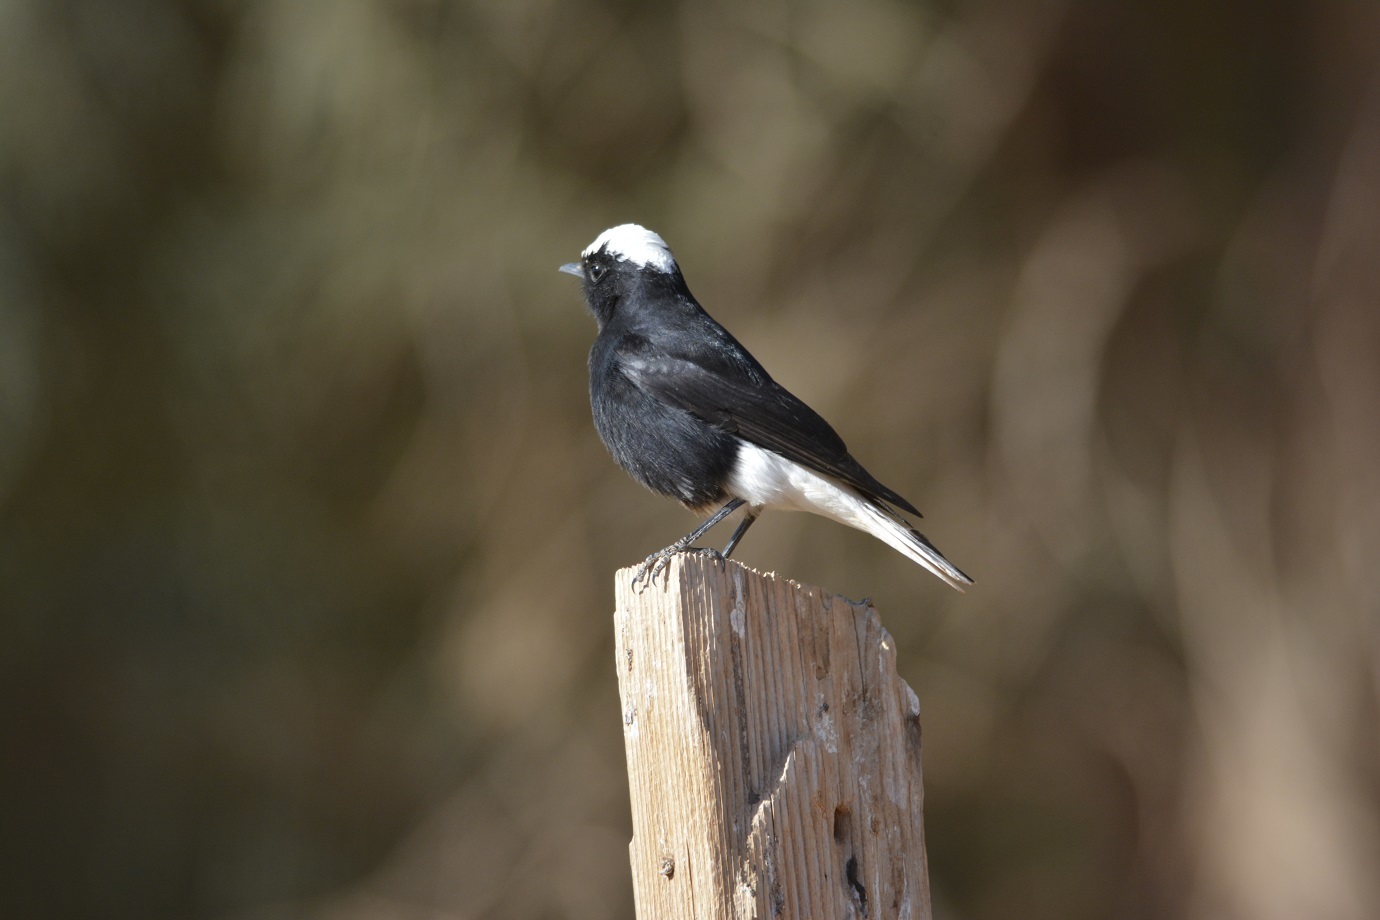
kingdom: Animalia
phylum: Chordata
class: Aves
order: Passeriformes
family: Muscicapidae
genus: Oenanthe
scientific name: Oenanthe leucopyga
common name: White-crowned wheatear
